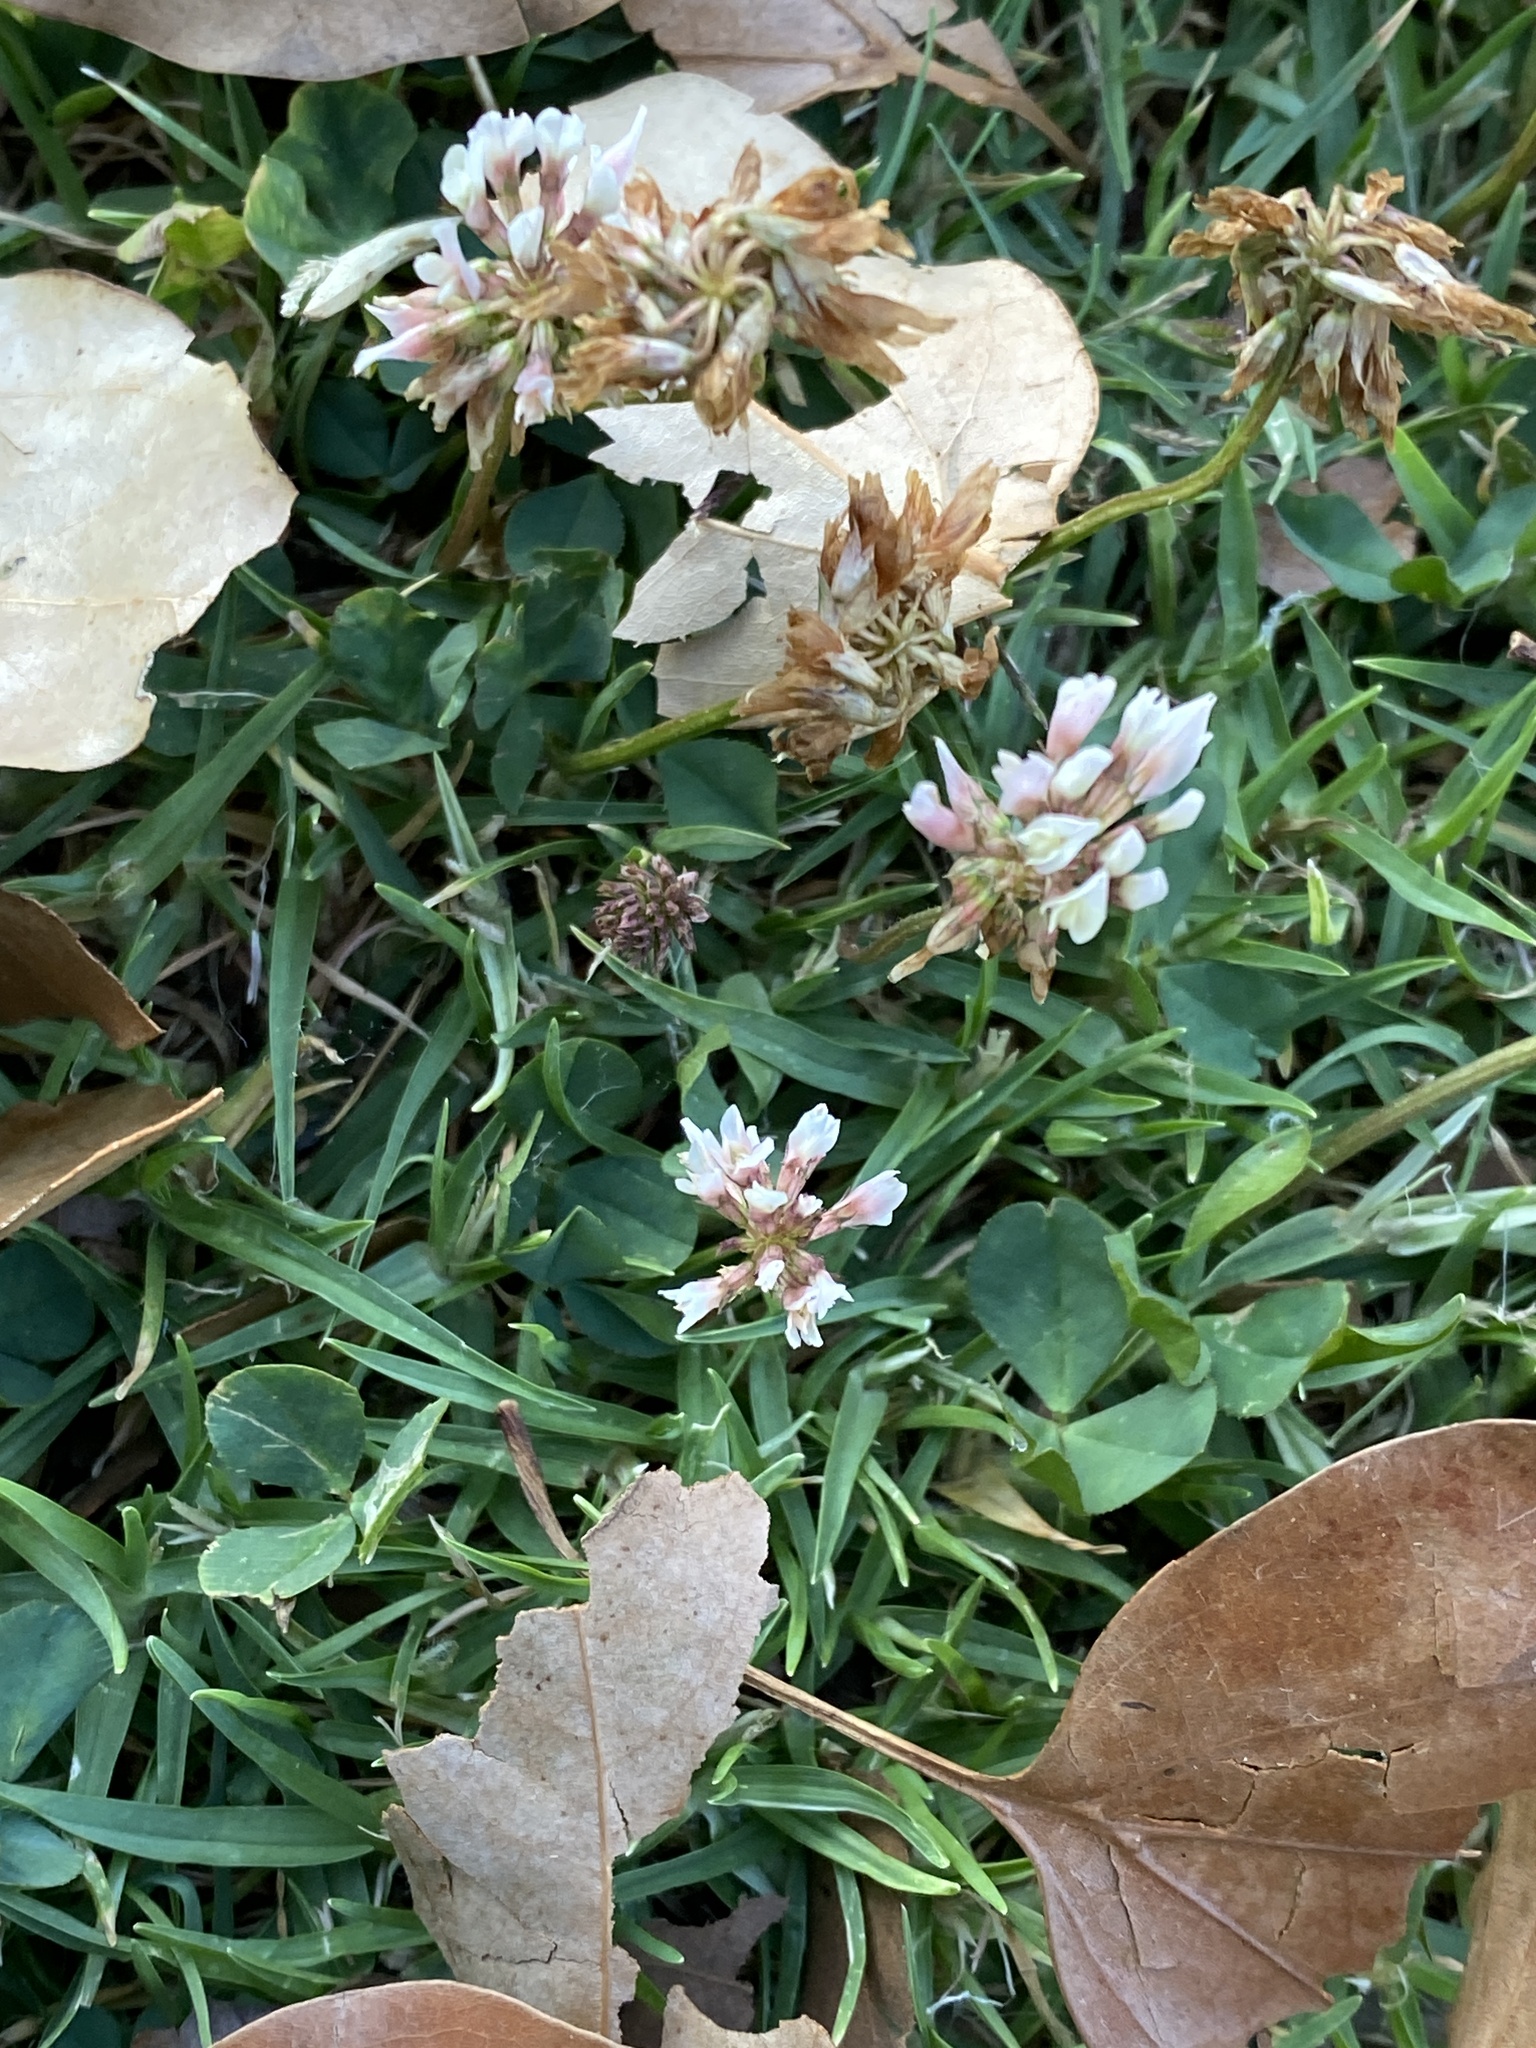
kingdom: Plantae
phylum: Tracheophyta
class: Magnoliopsida
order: Fabales
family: Fabaceae
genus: Trifolium
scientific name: Trifolium repens
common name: White clover
